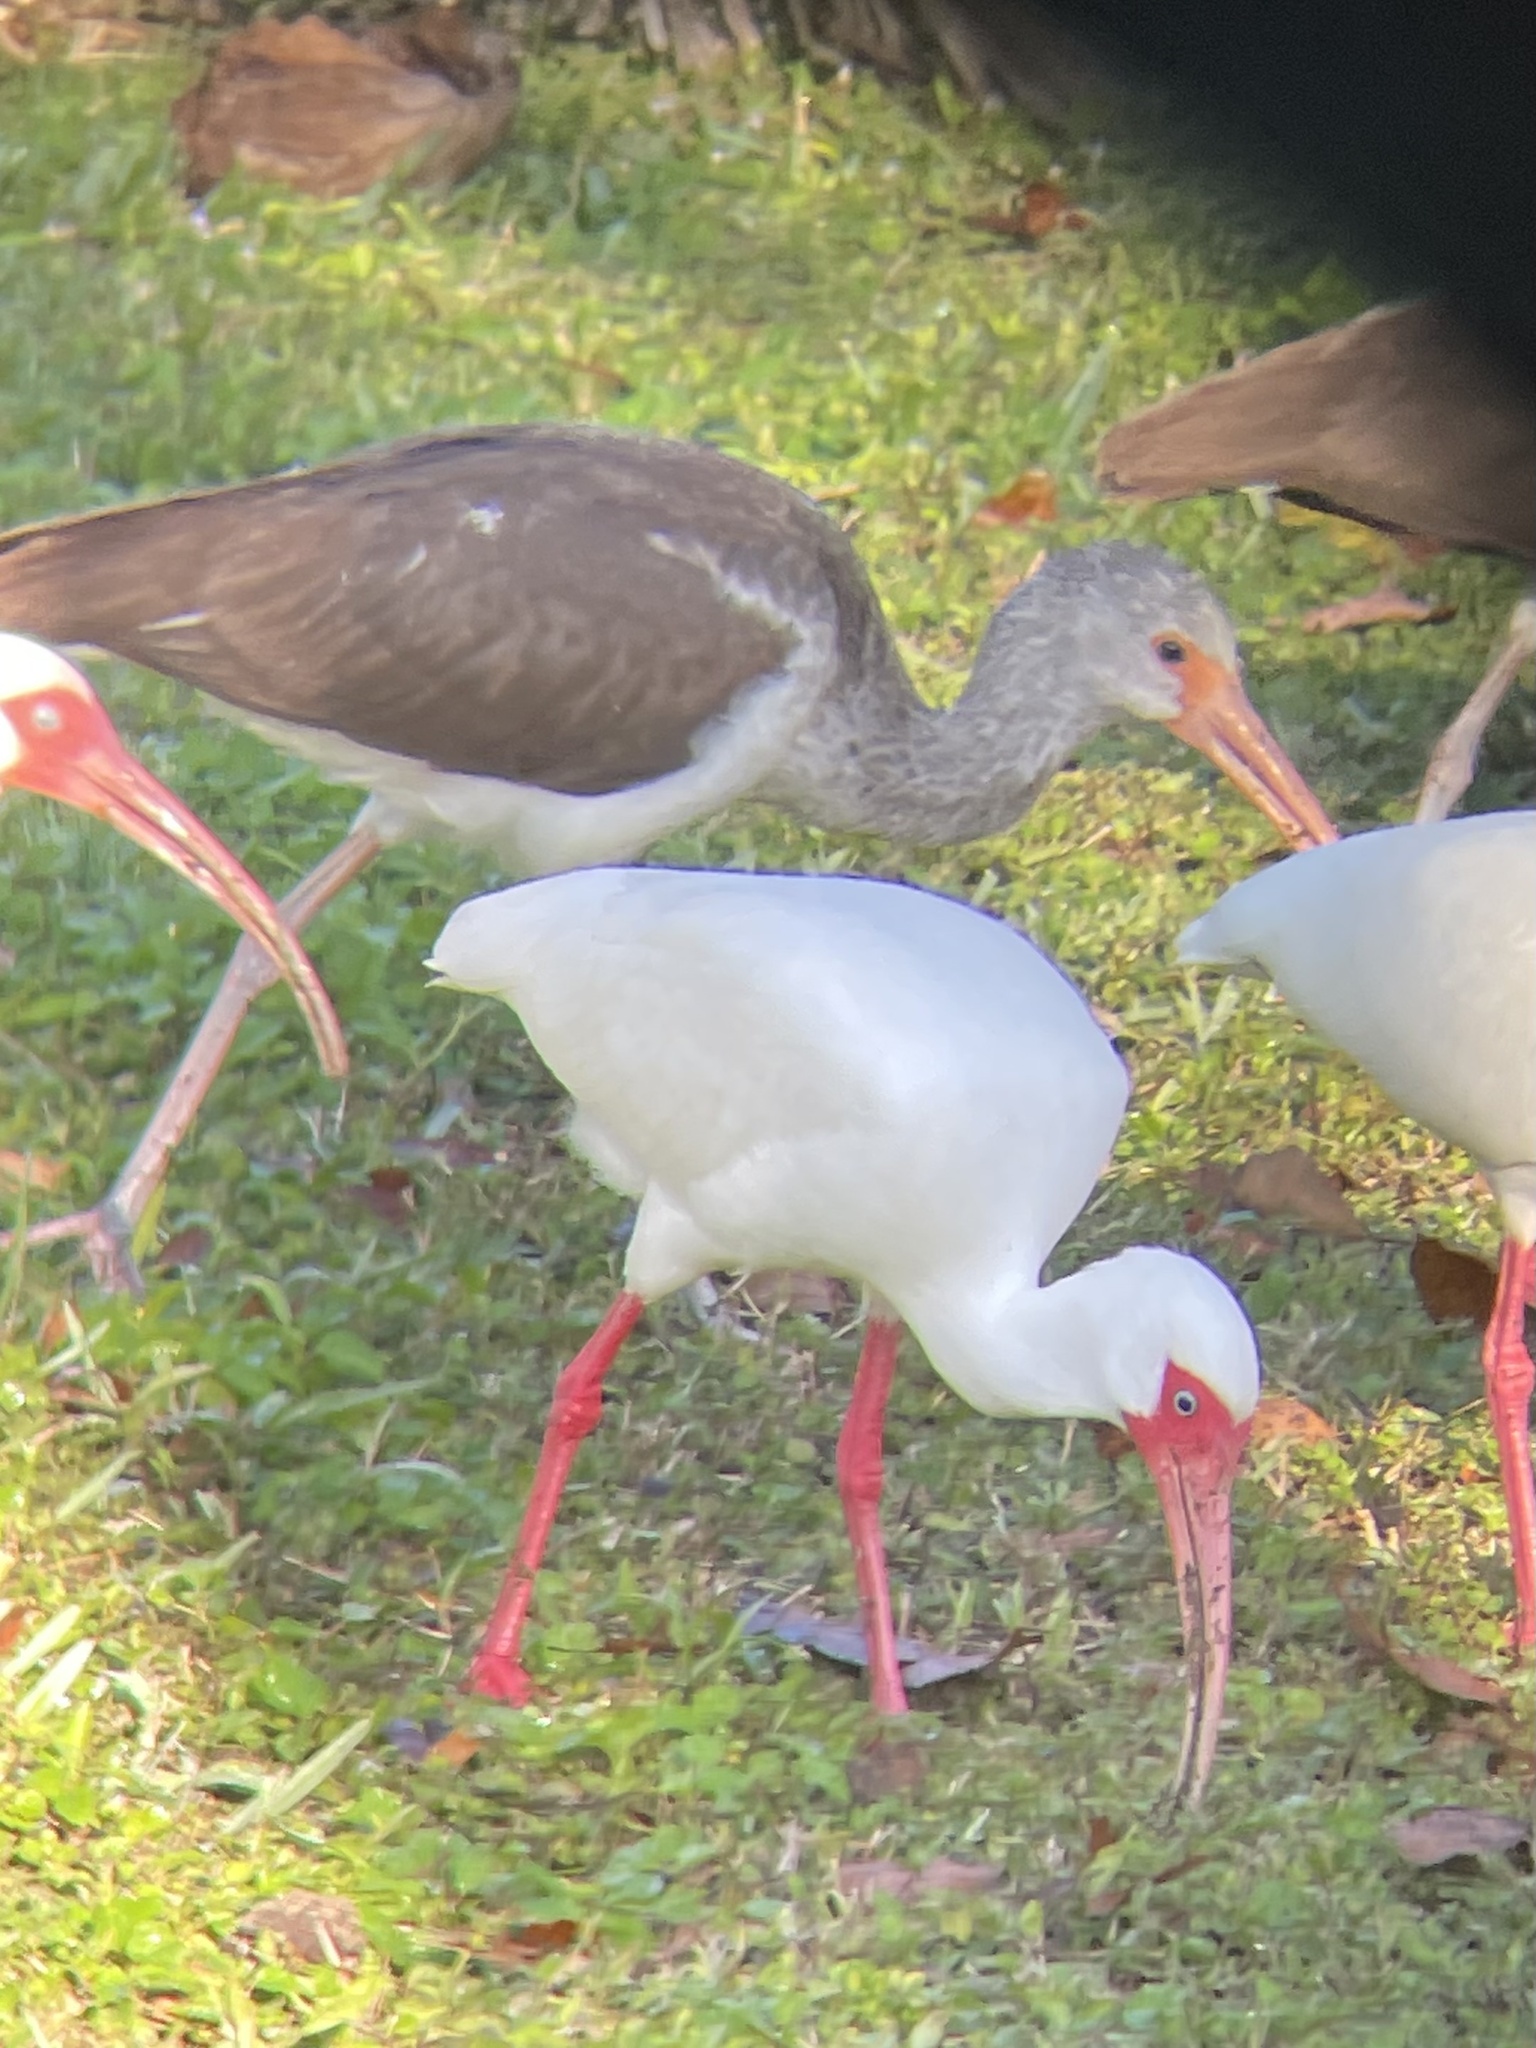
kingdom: Animalia
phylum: Chordata
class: Aves
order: Pelecaniformes
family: Threskiornithidae
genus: Eudocimus
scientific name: Eudocimus albus
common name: White ibis
